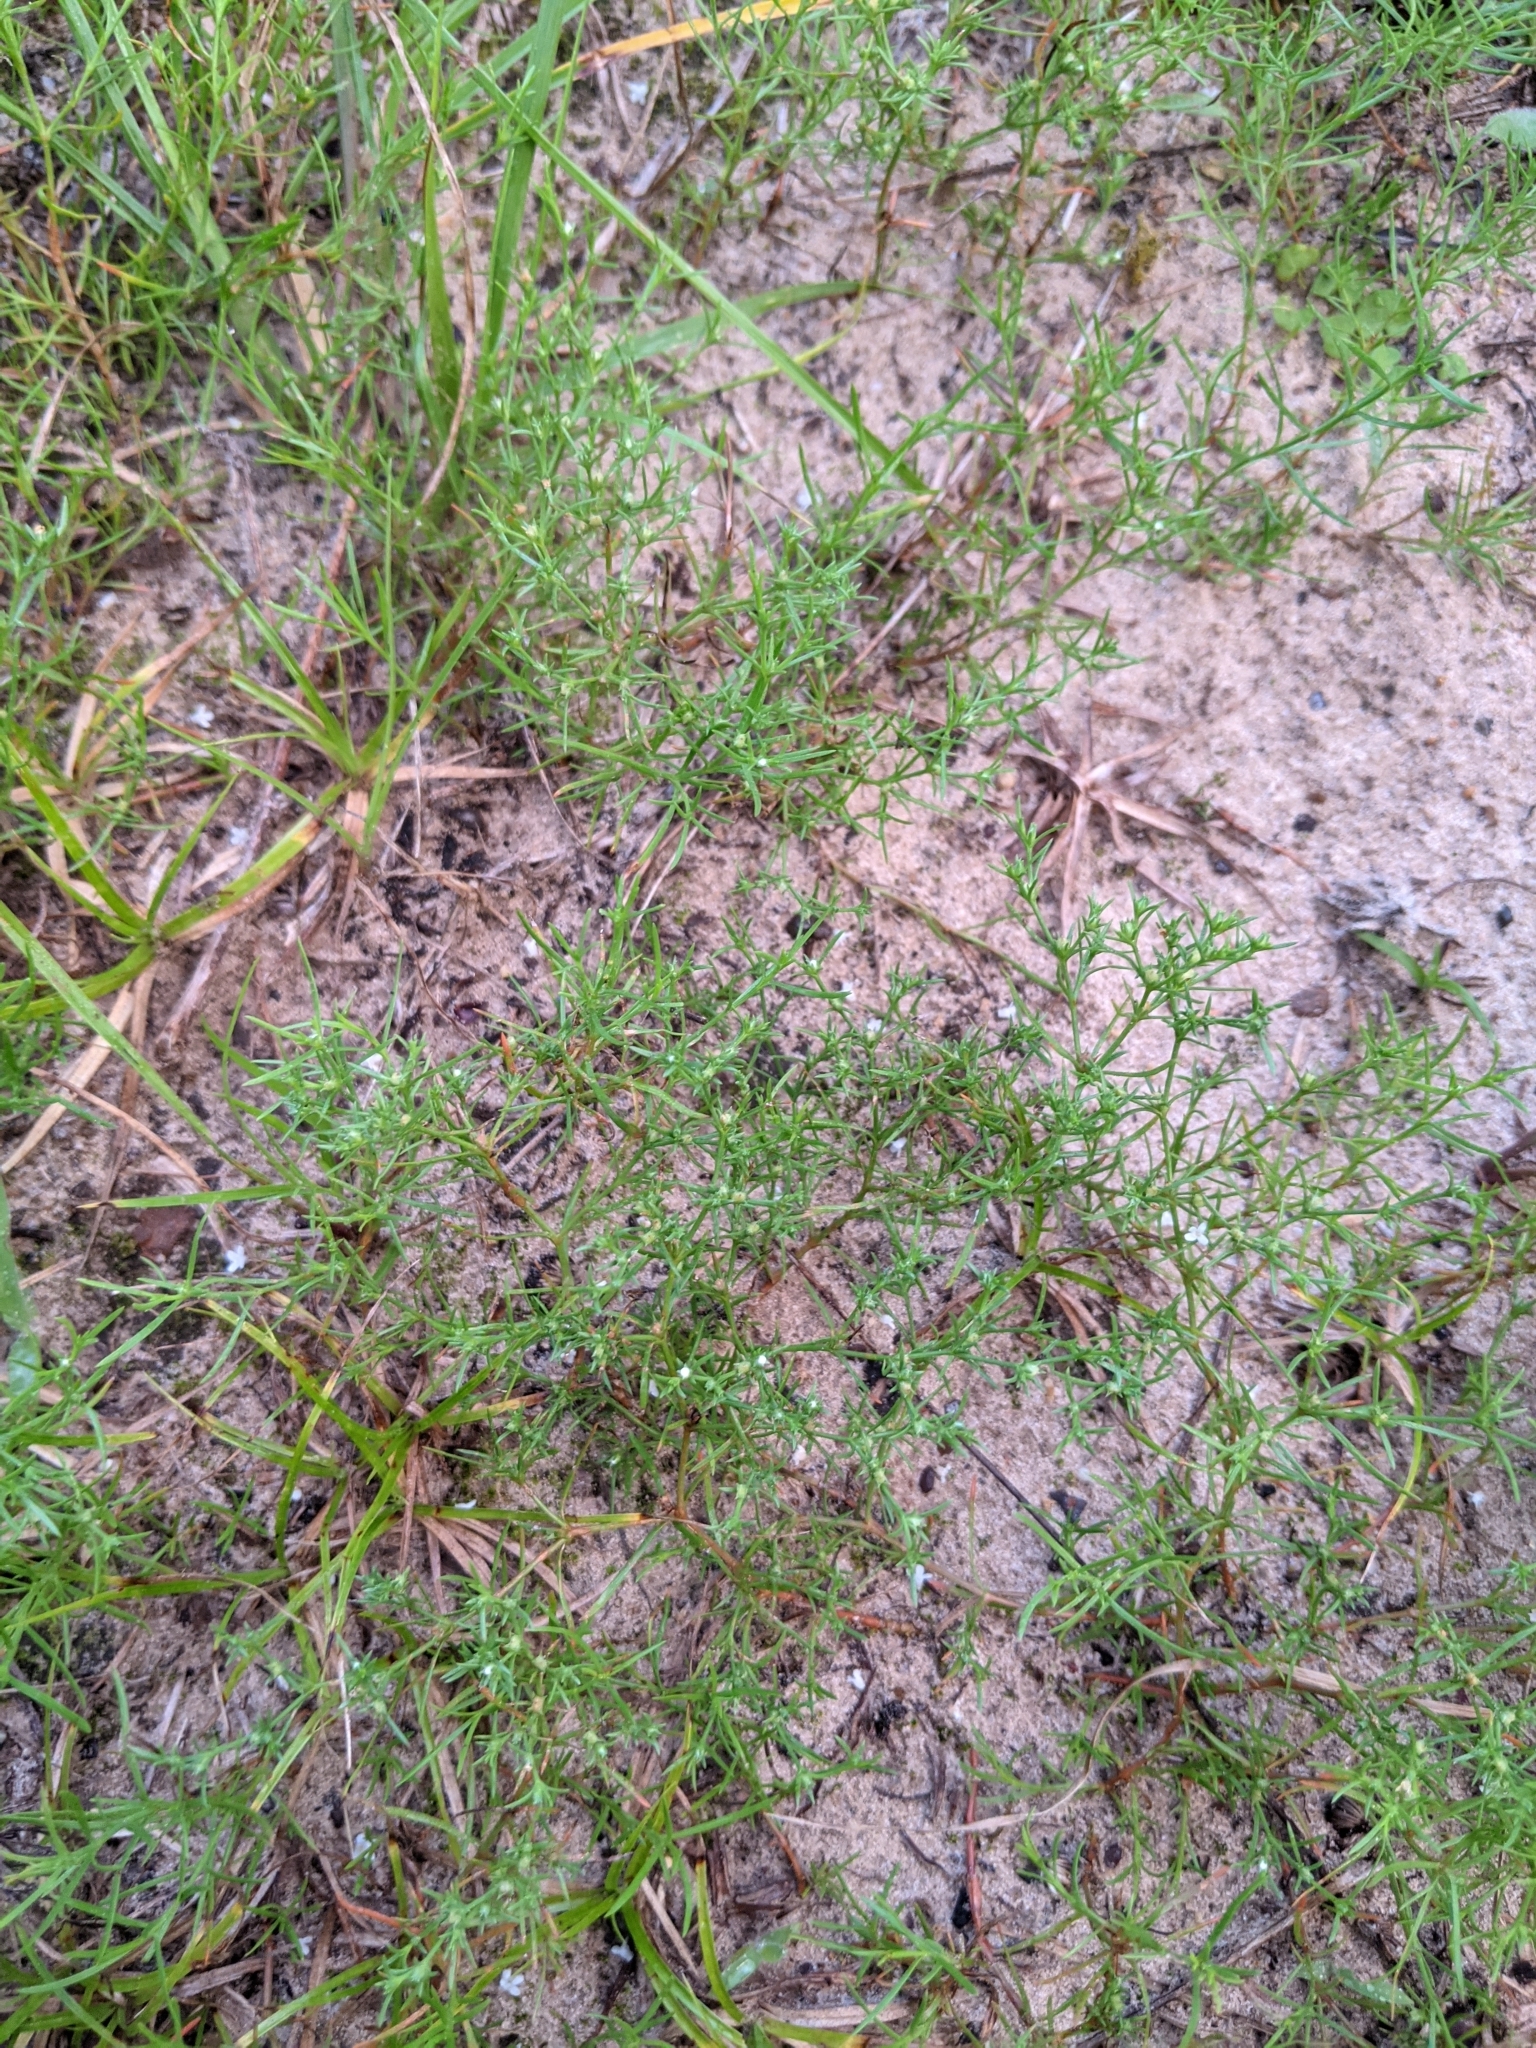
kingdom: Plantae
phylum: Tracheophyta
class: Magnoliopsida
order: Lamiales
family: Tetrachondraceae
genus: Polypremum
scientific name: Polypremum procumbens
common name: Juniper-leaf
